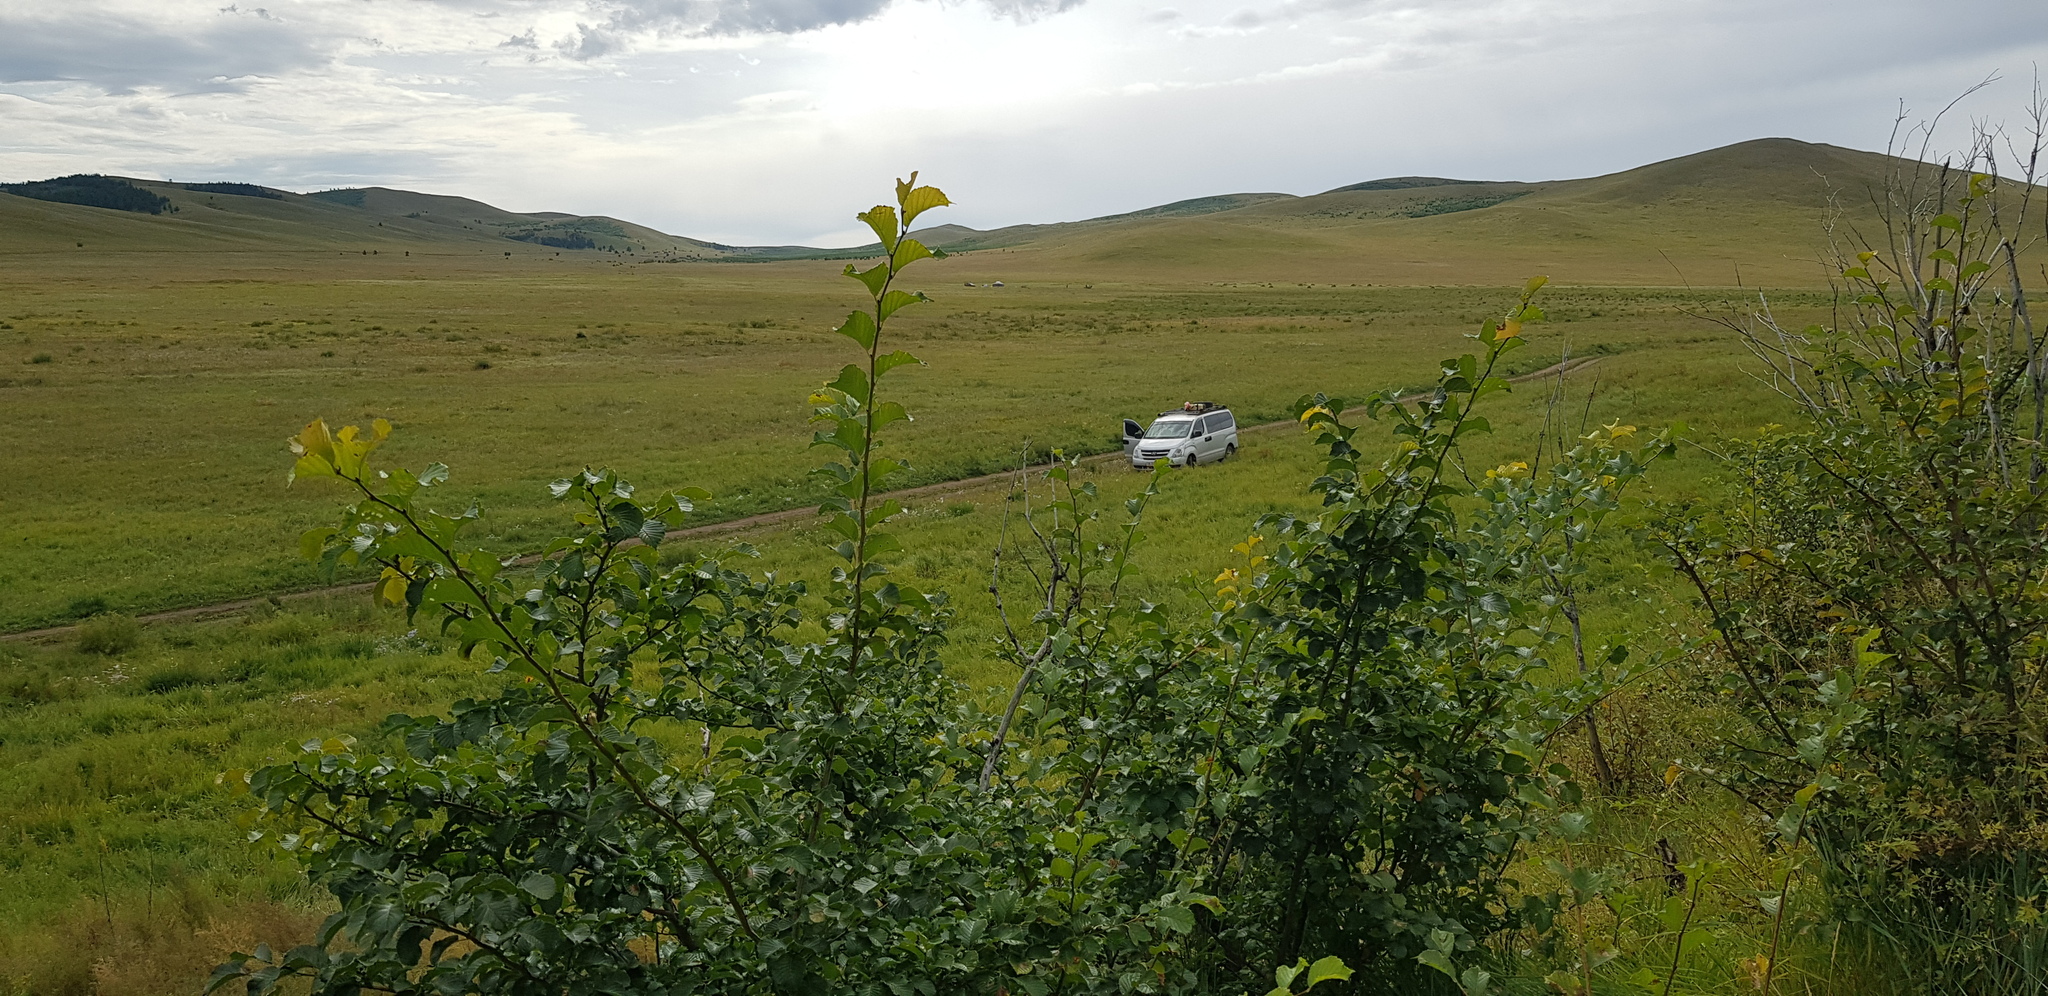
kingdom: Plantae
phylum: Tracheophyta
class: Magnoliopsida
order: Rosales
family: Rosaceae
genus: Prunus
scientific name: Prunus padus
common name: Bird cherry
